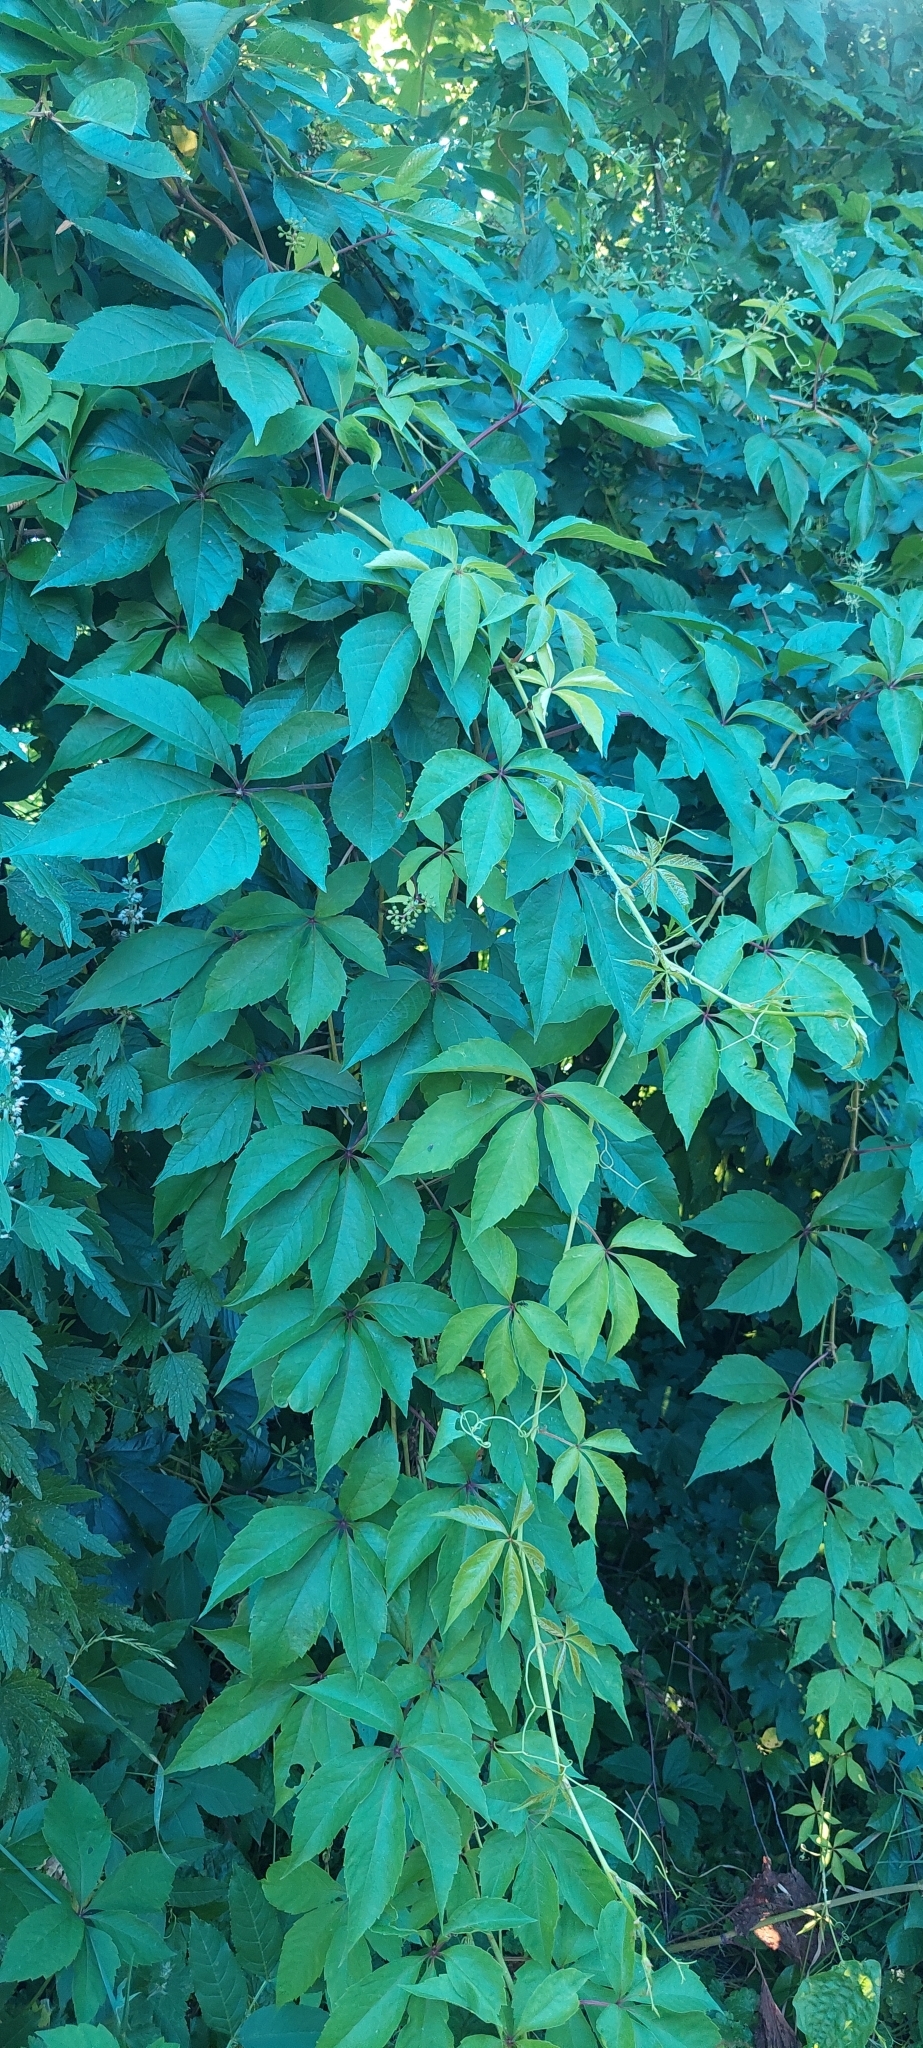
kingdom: Plantae
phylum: Tracheophyta
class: Magnoliopsida
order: Vitales
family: Vitaceae
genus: Parthenocissus
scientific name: Parthenocissus inserta
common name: False virginia-creeper
